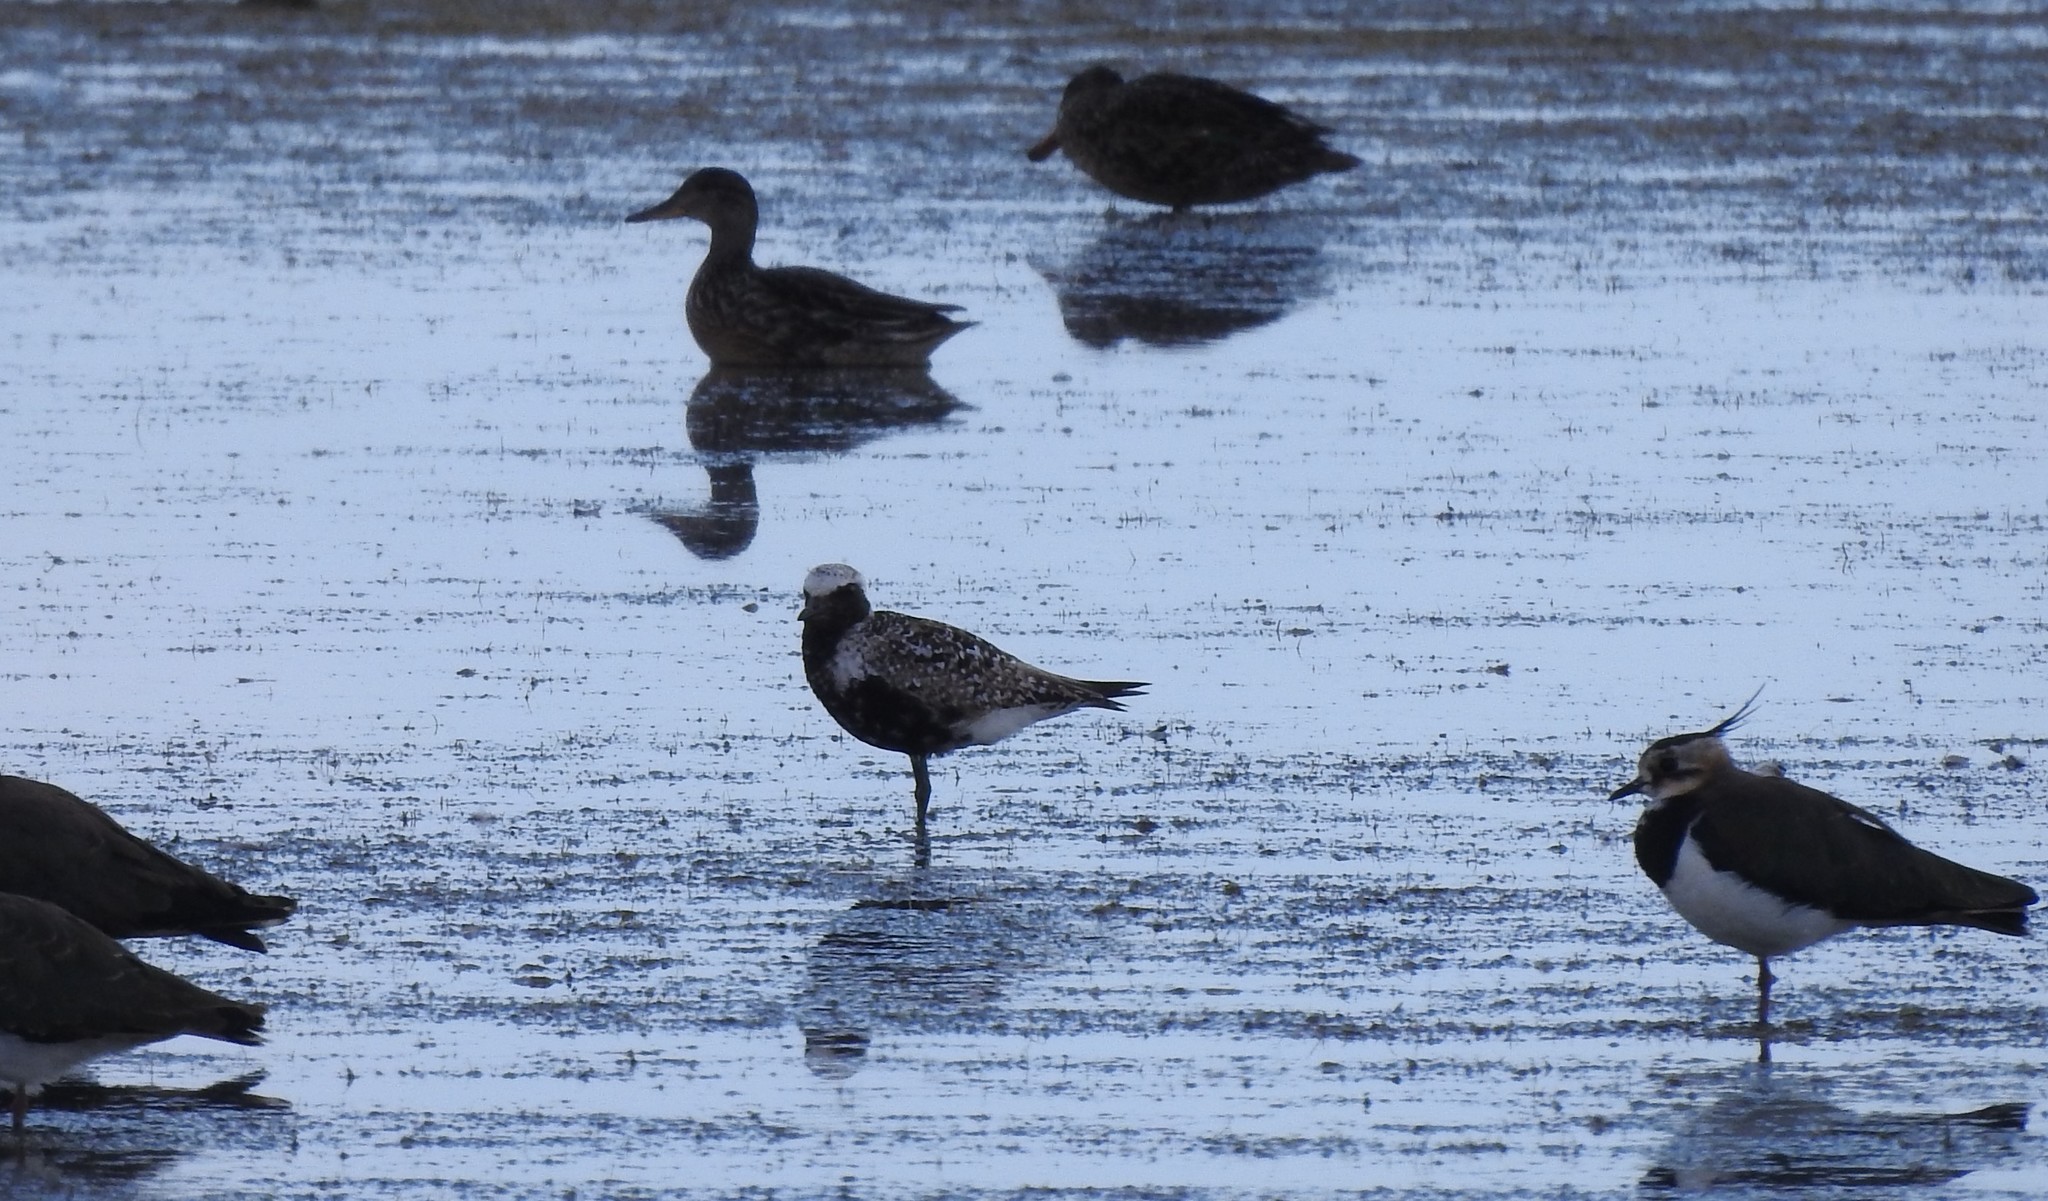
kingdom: Animalia
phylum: Chordata
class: Aves
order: Charadriiformes
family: Charadriidae
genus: Pluvialis
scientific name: Pluvialis squatarola
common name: Grey plover
